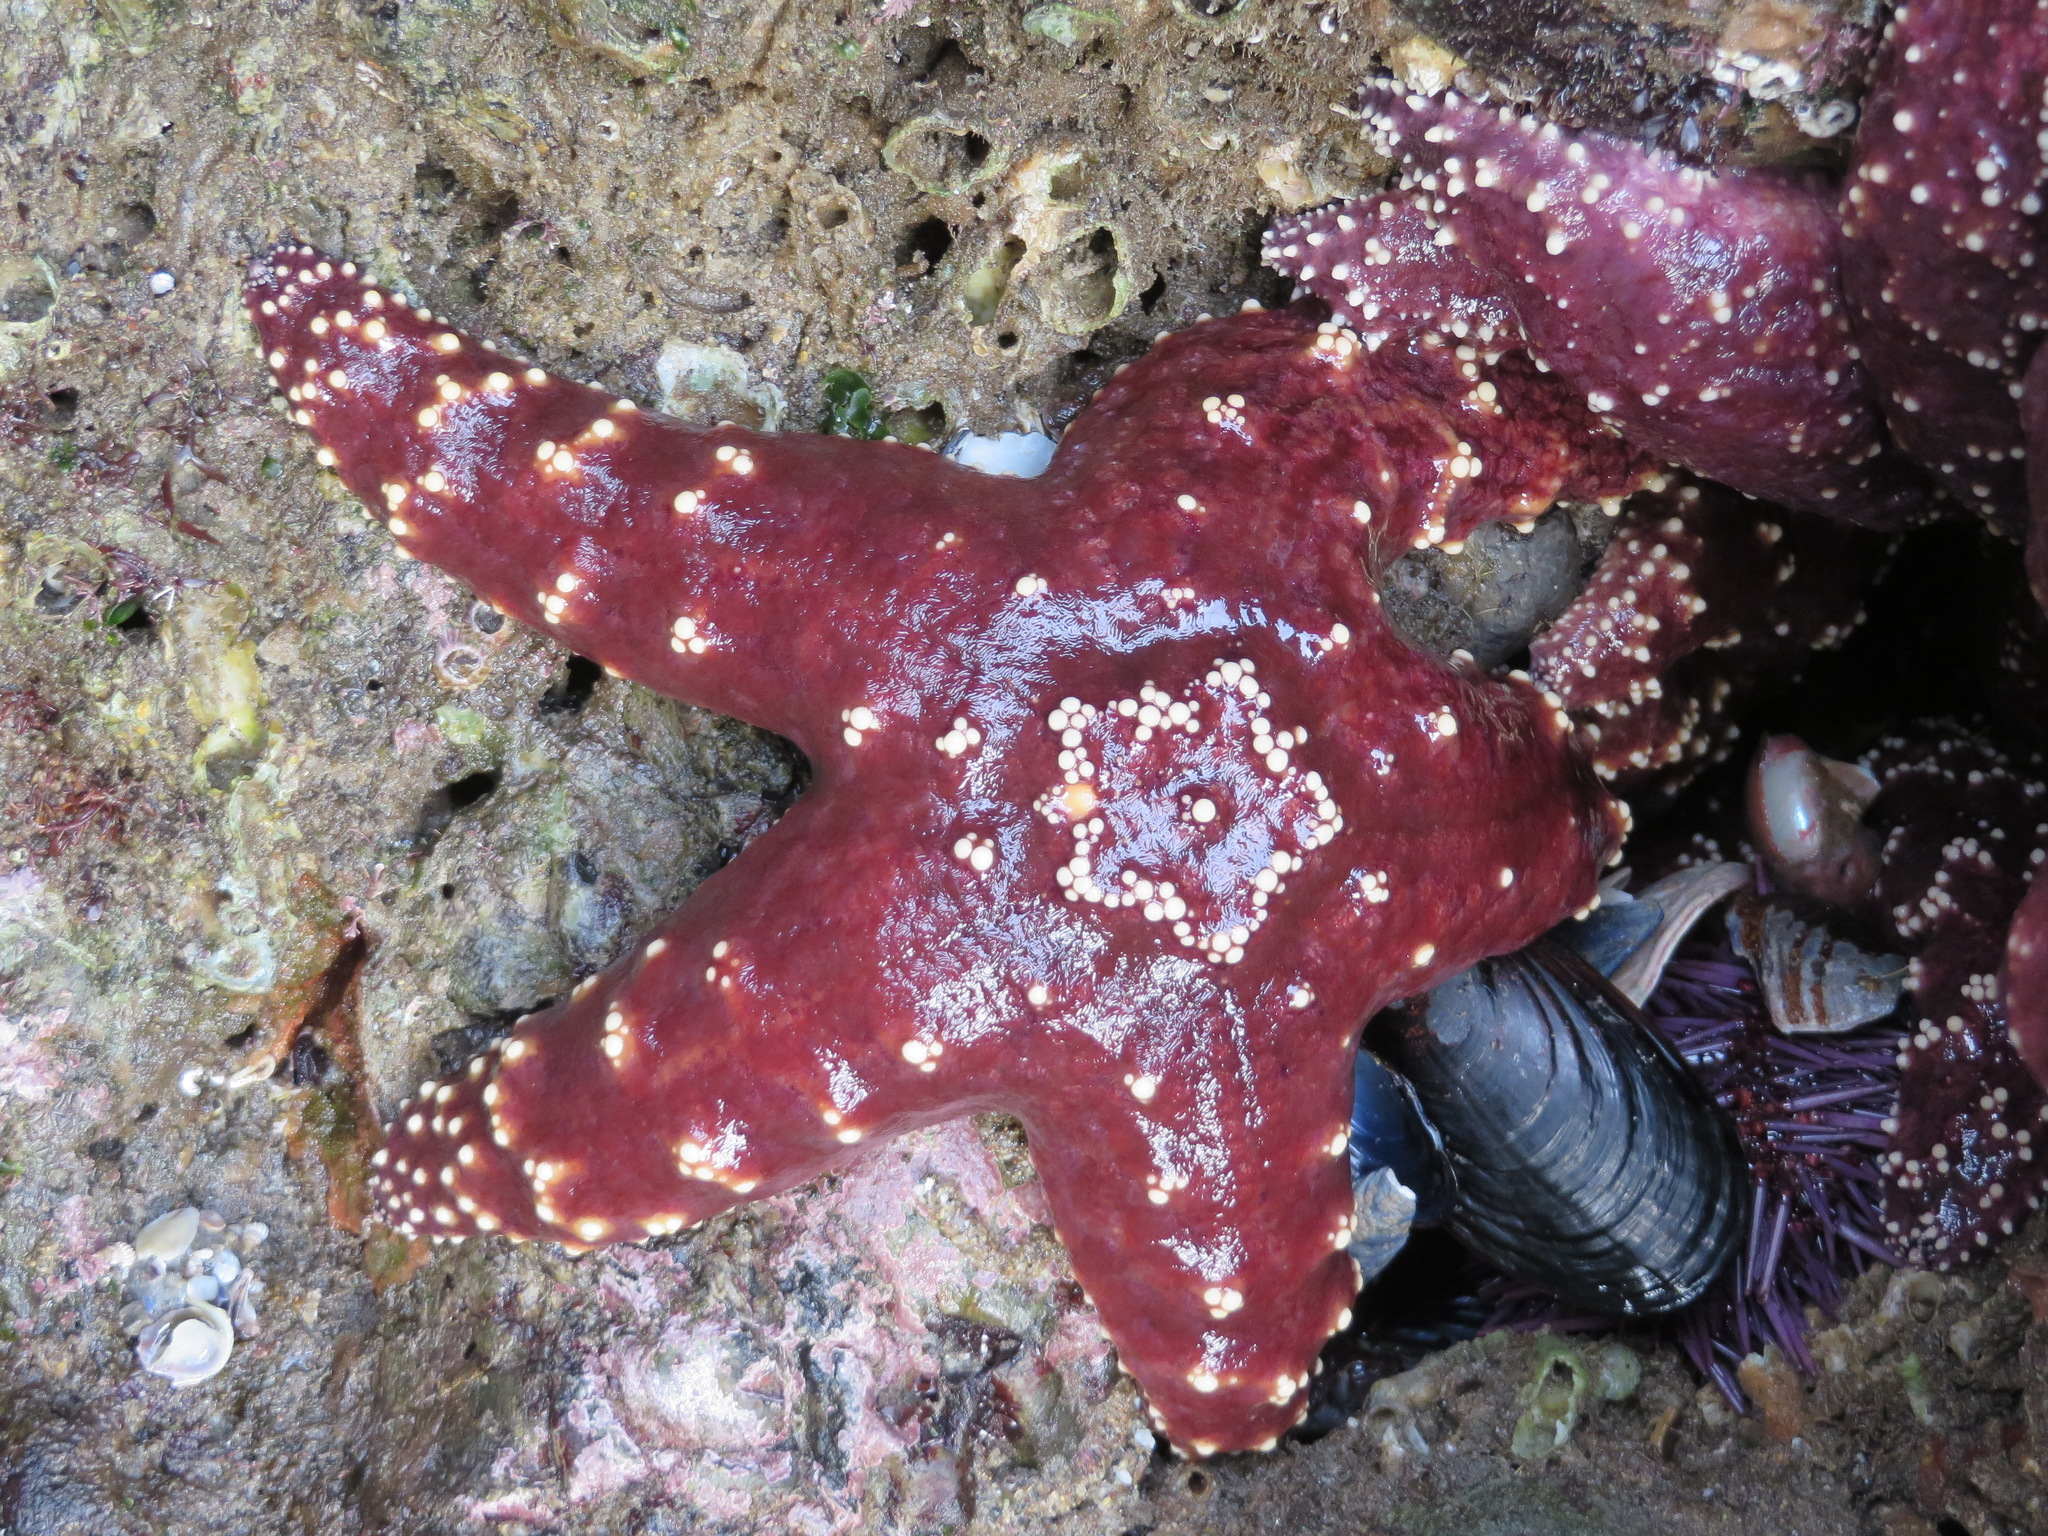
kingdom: Animalia
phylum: Echinodermata
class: Asteroidea
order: Forcipulatida
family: Asteriidae
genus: Pisaster
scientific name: Pisaster ochraceus
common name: Ochre stars
